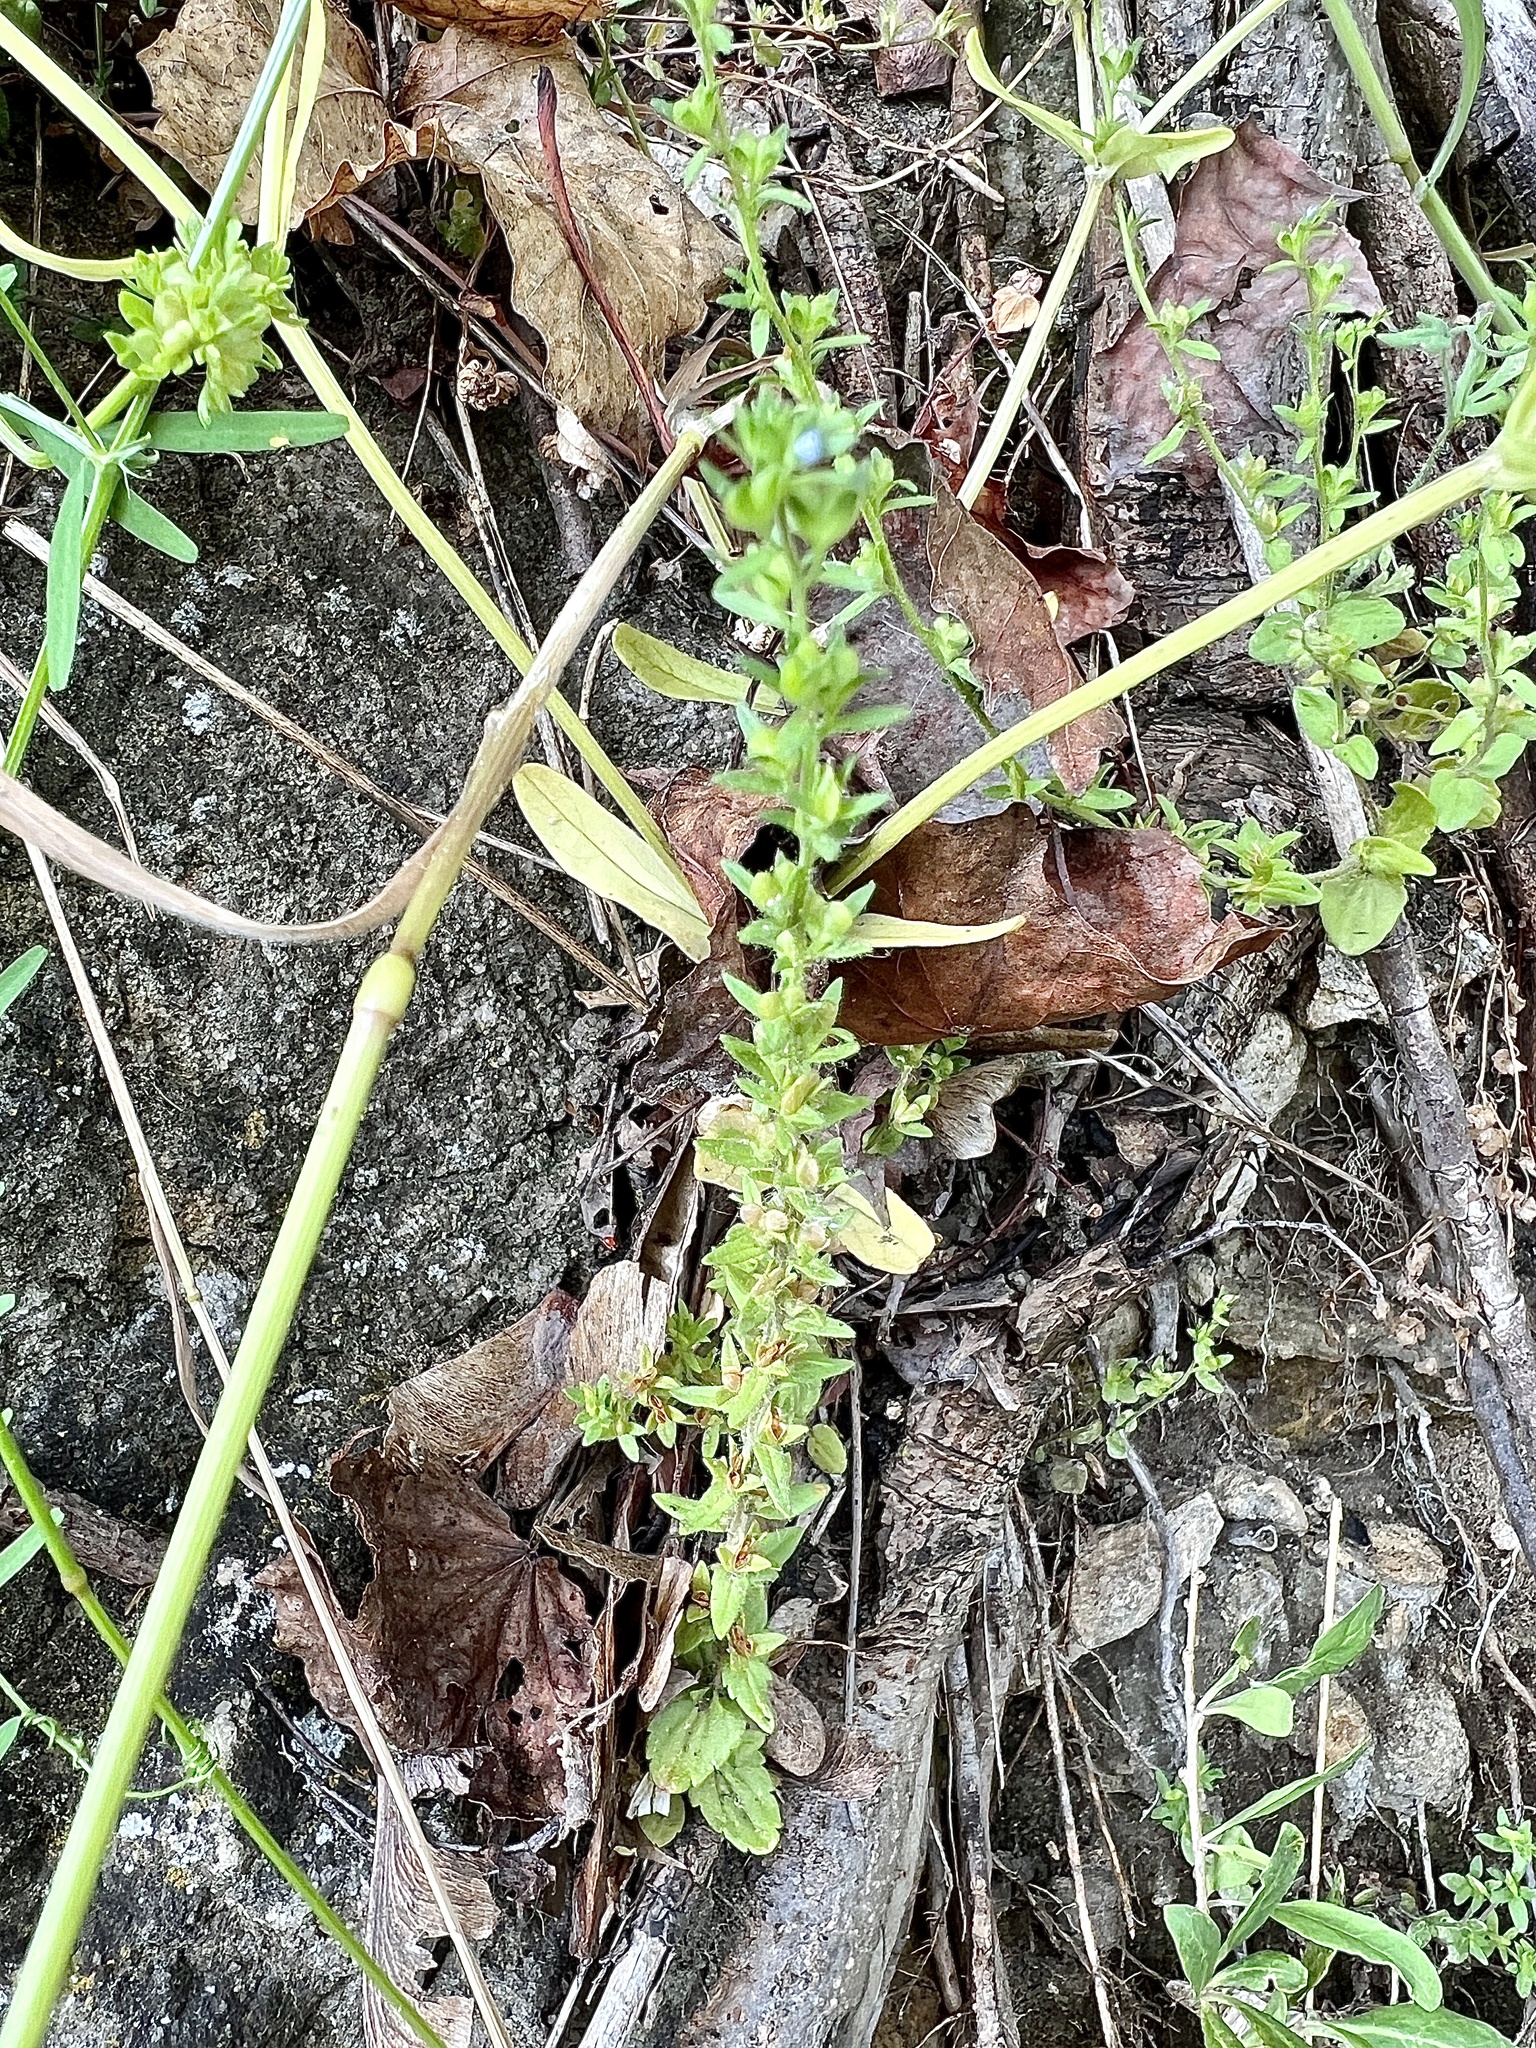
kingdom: Plantae
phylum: Tracheophyta
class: Magnoliopsida
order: Lamiales
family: Plantaginaceae
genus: Veronica
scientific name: Veronica arvensis
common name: Corn speedwell
